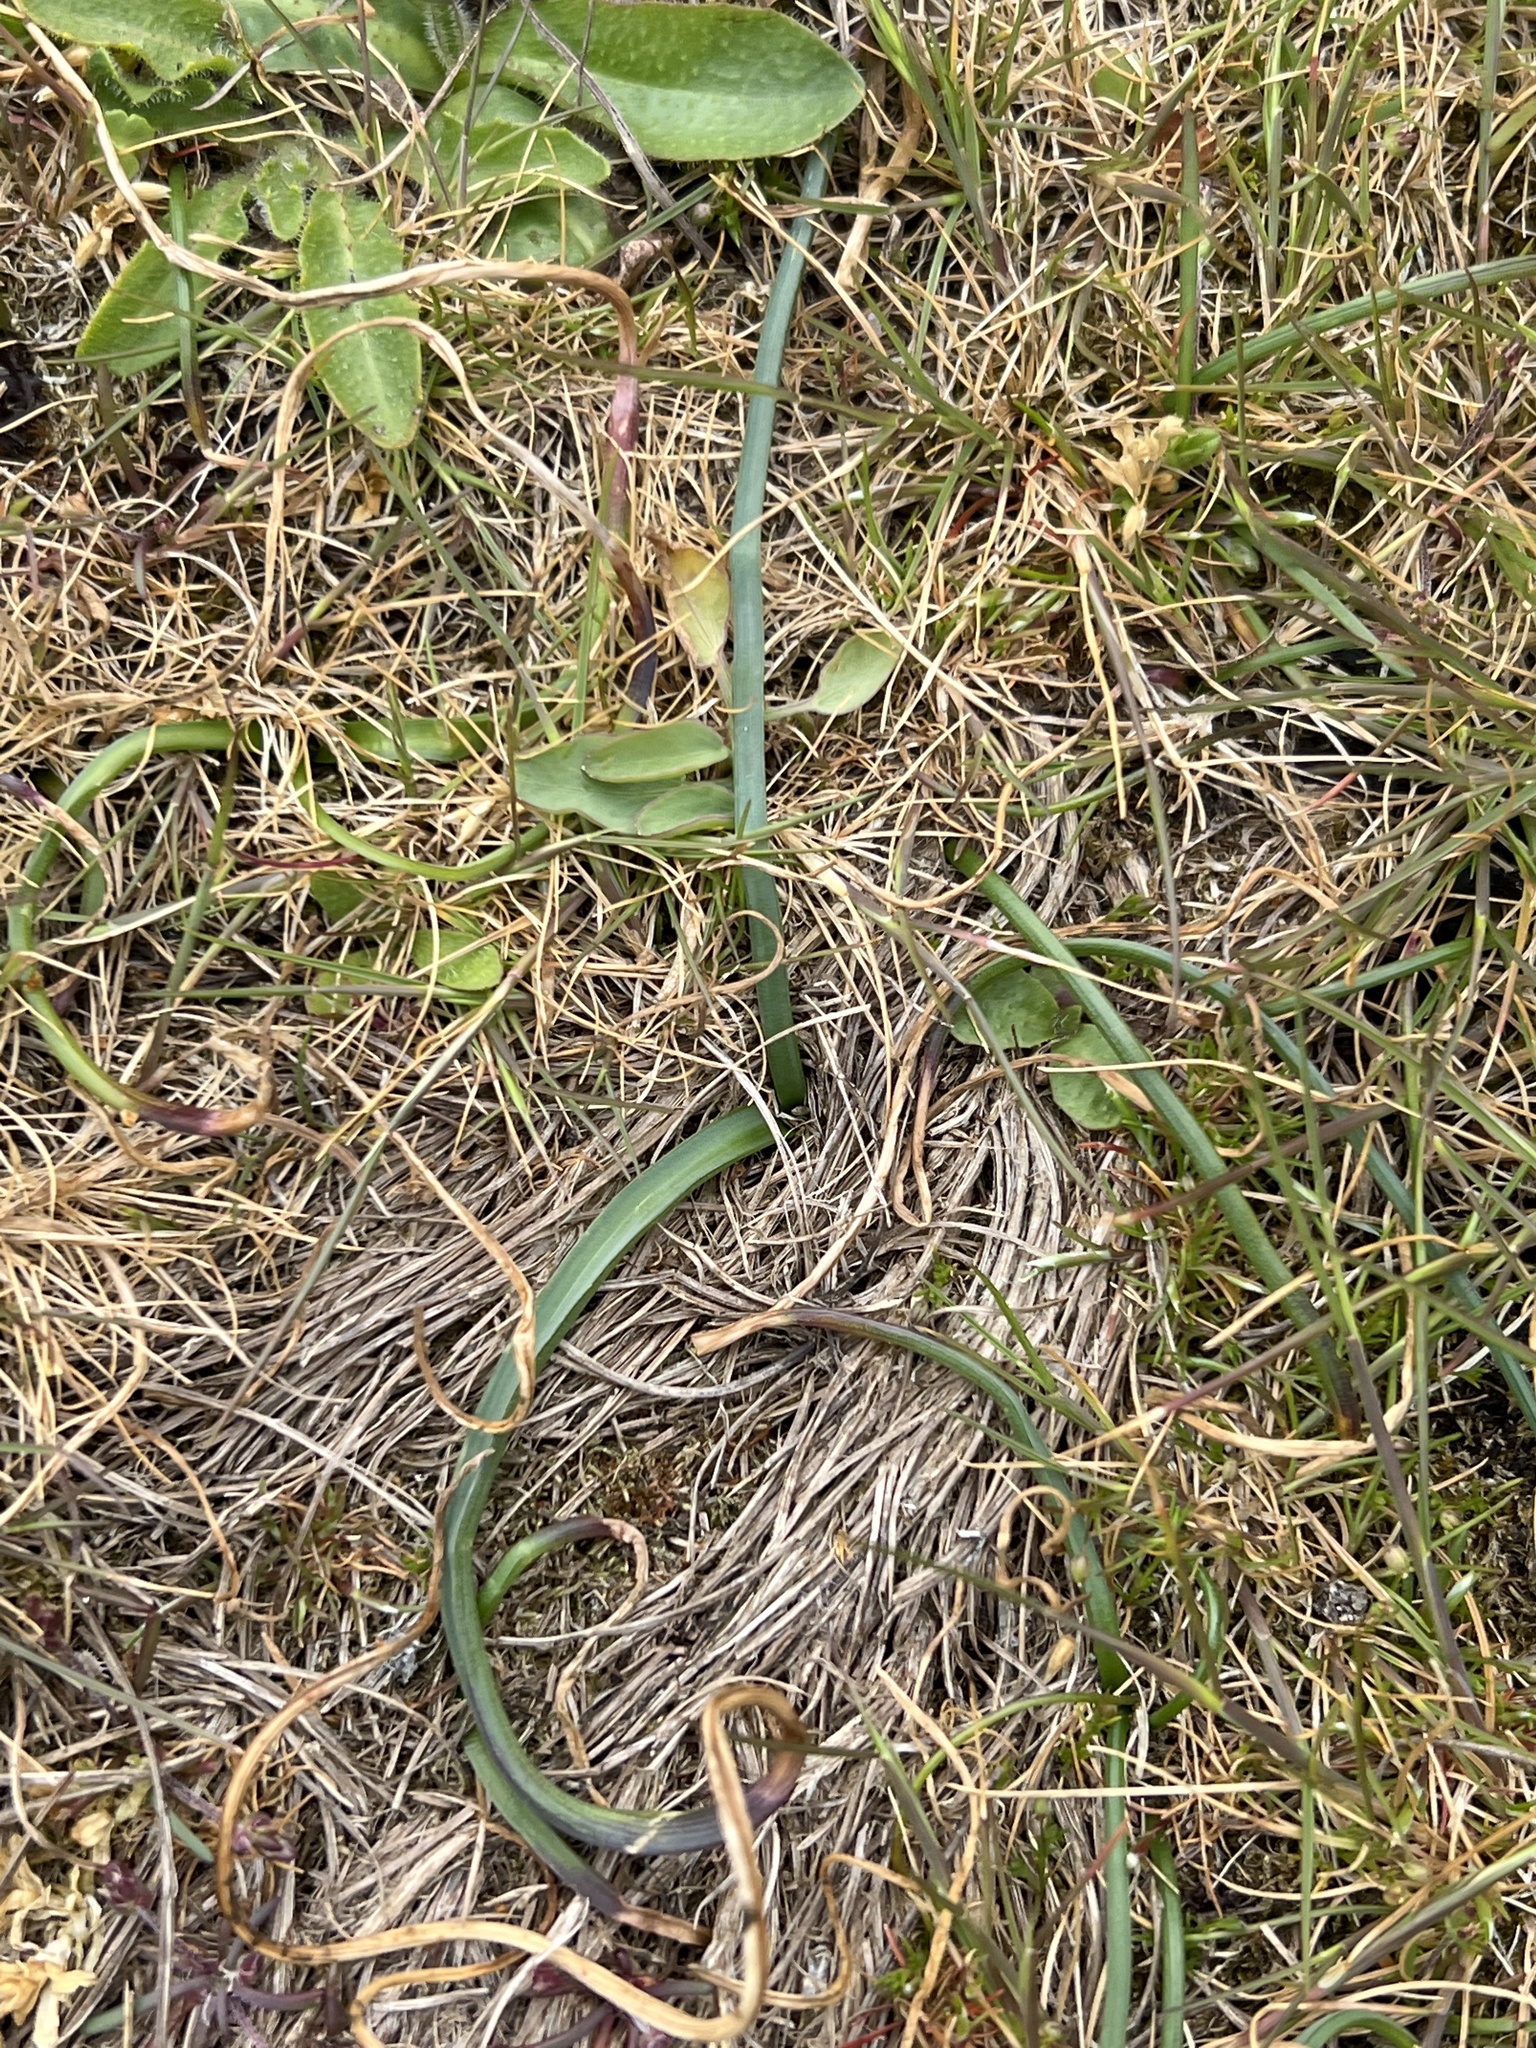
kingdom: Plantae
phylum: Tracheophyta
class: Liliopsida
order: Asparagales
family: Amaryllidaceae
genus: Allium
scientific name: Allium acuminatum
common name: Hooker's onion
